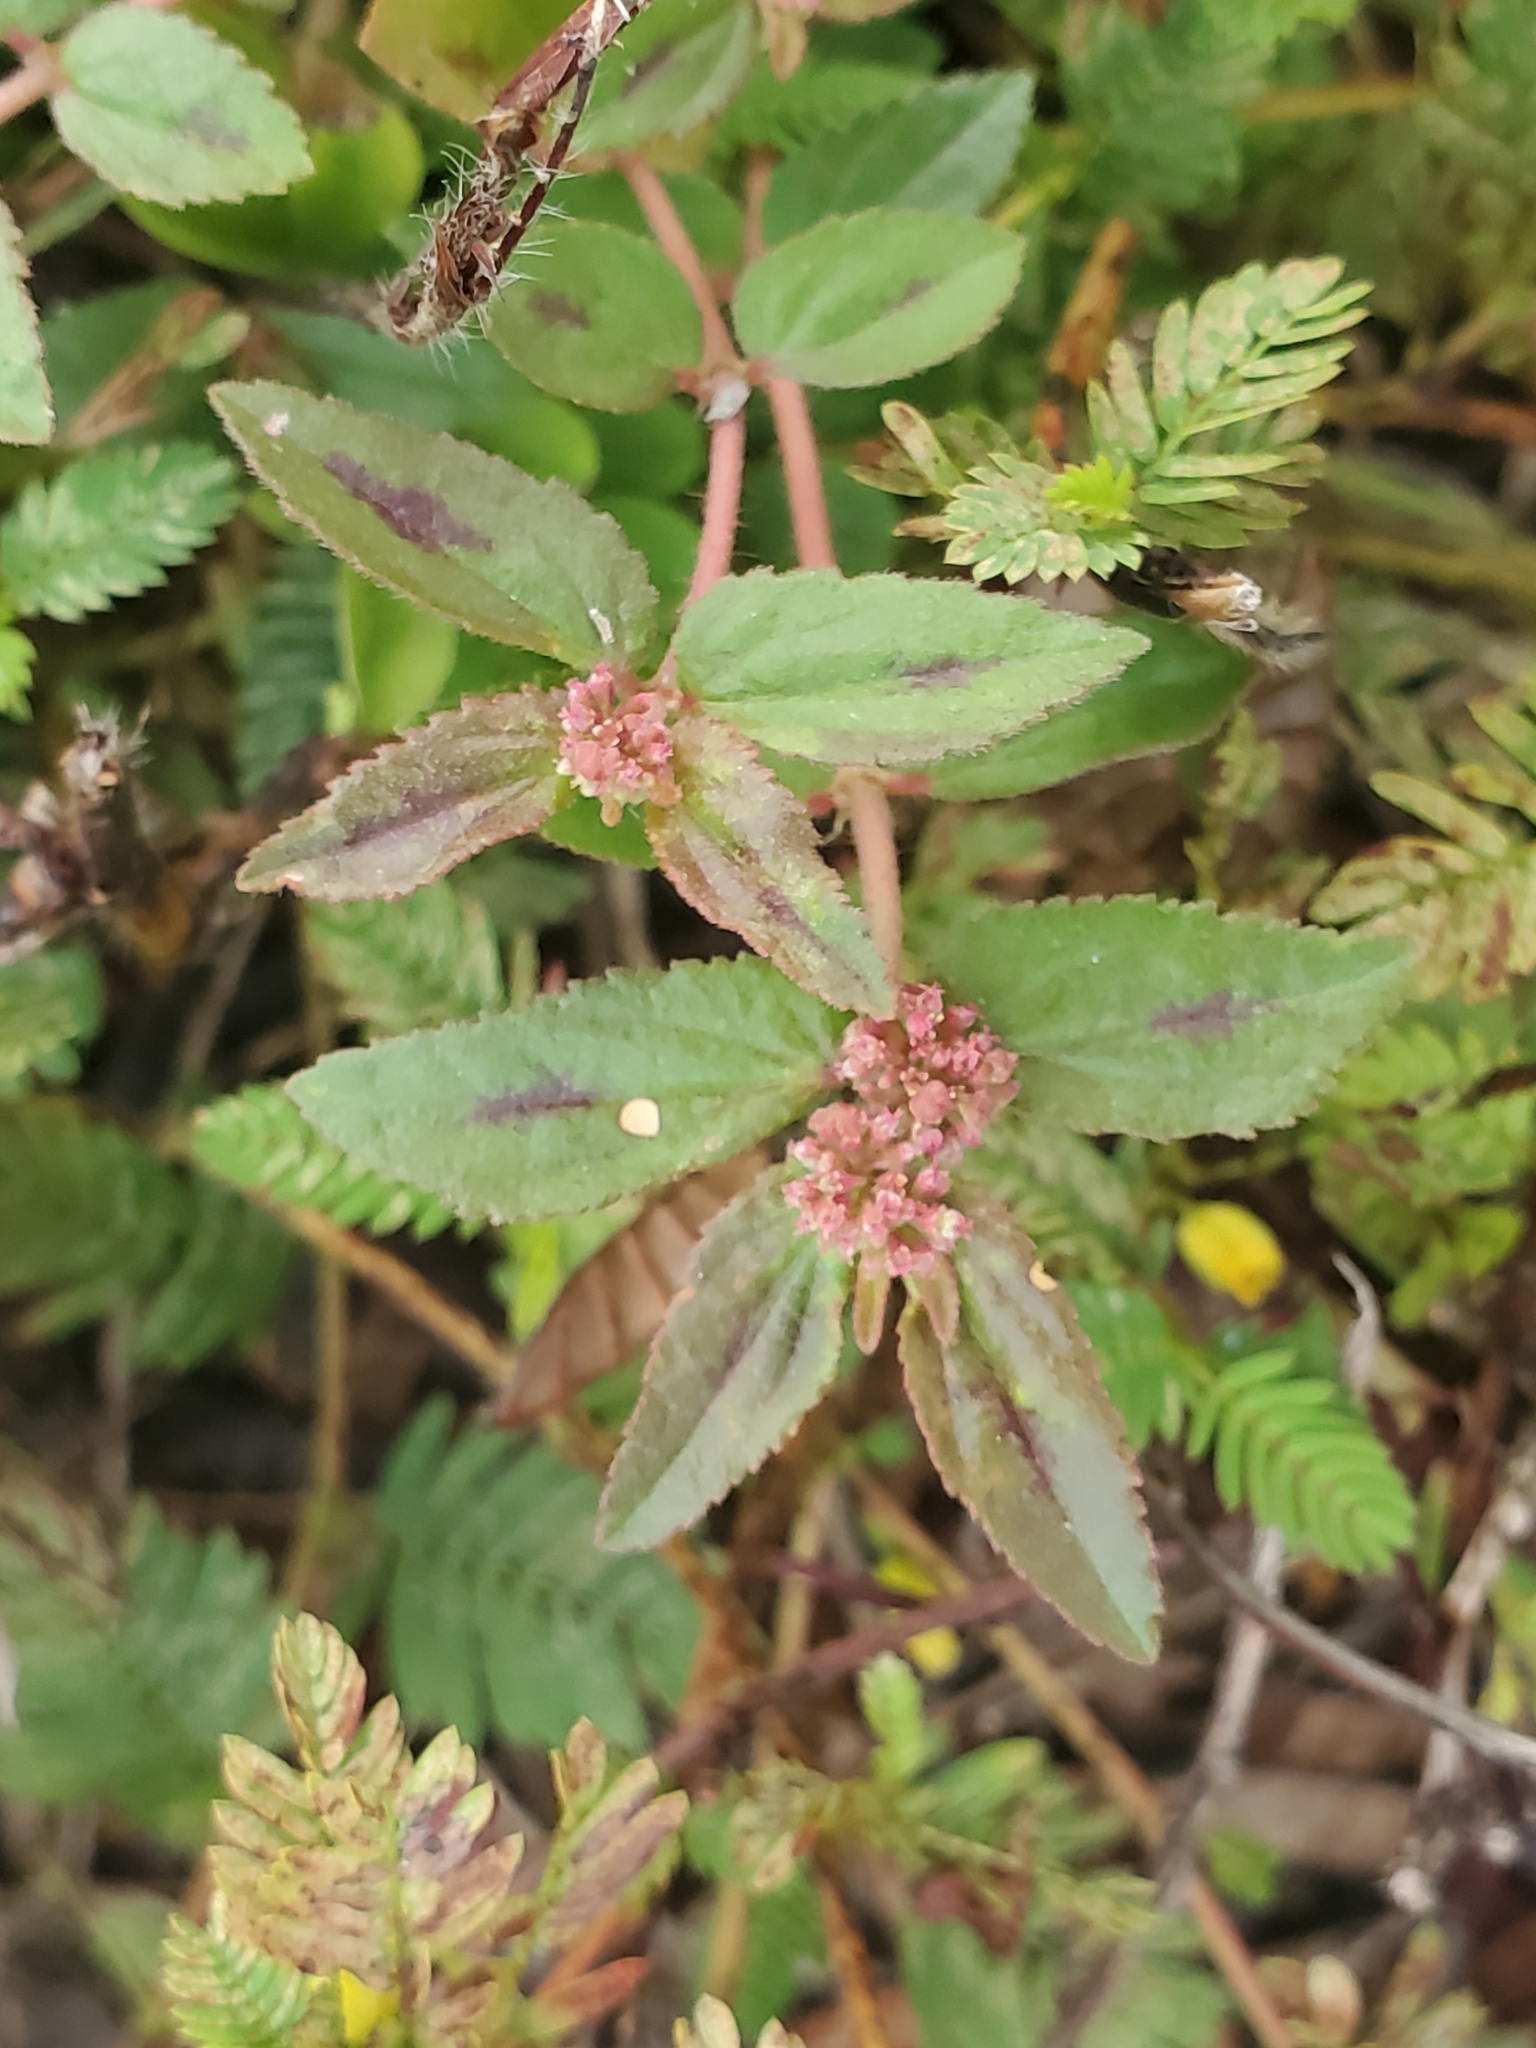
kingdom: Plantae
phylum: Tracheophyta
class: Magnoliopsida
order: Malpighiales
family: Euphorbiaceae
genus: Euphorbia
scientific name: Euphorbia hirta
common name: Pillpod sandmat
